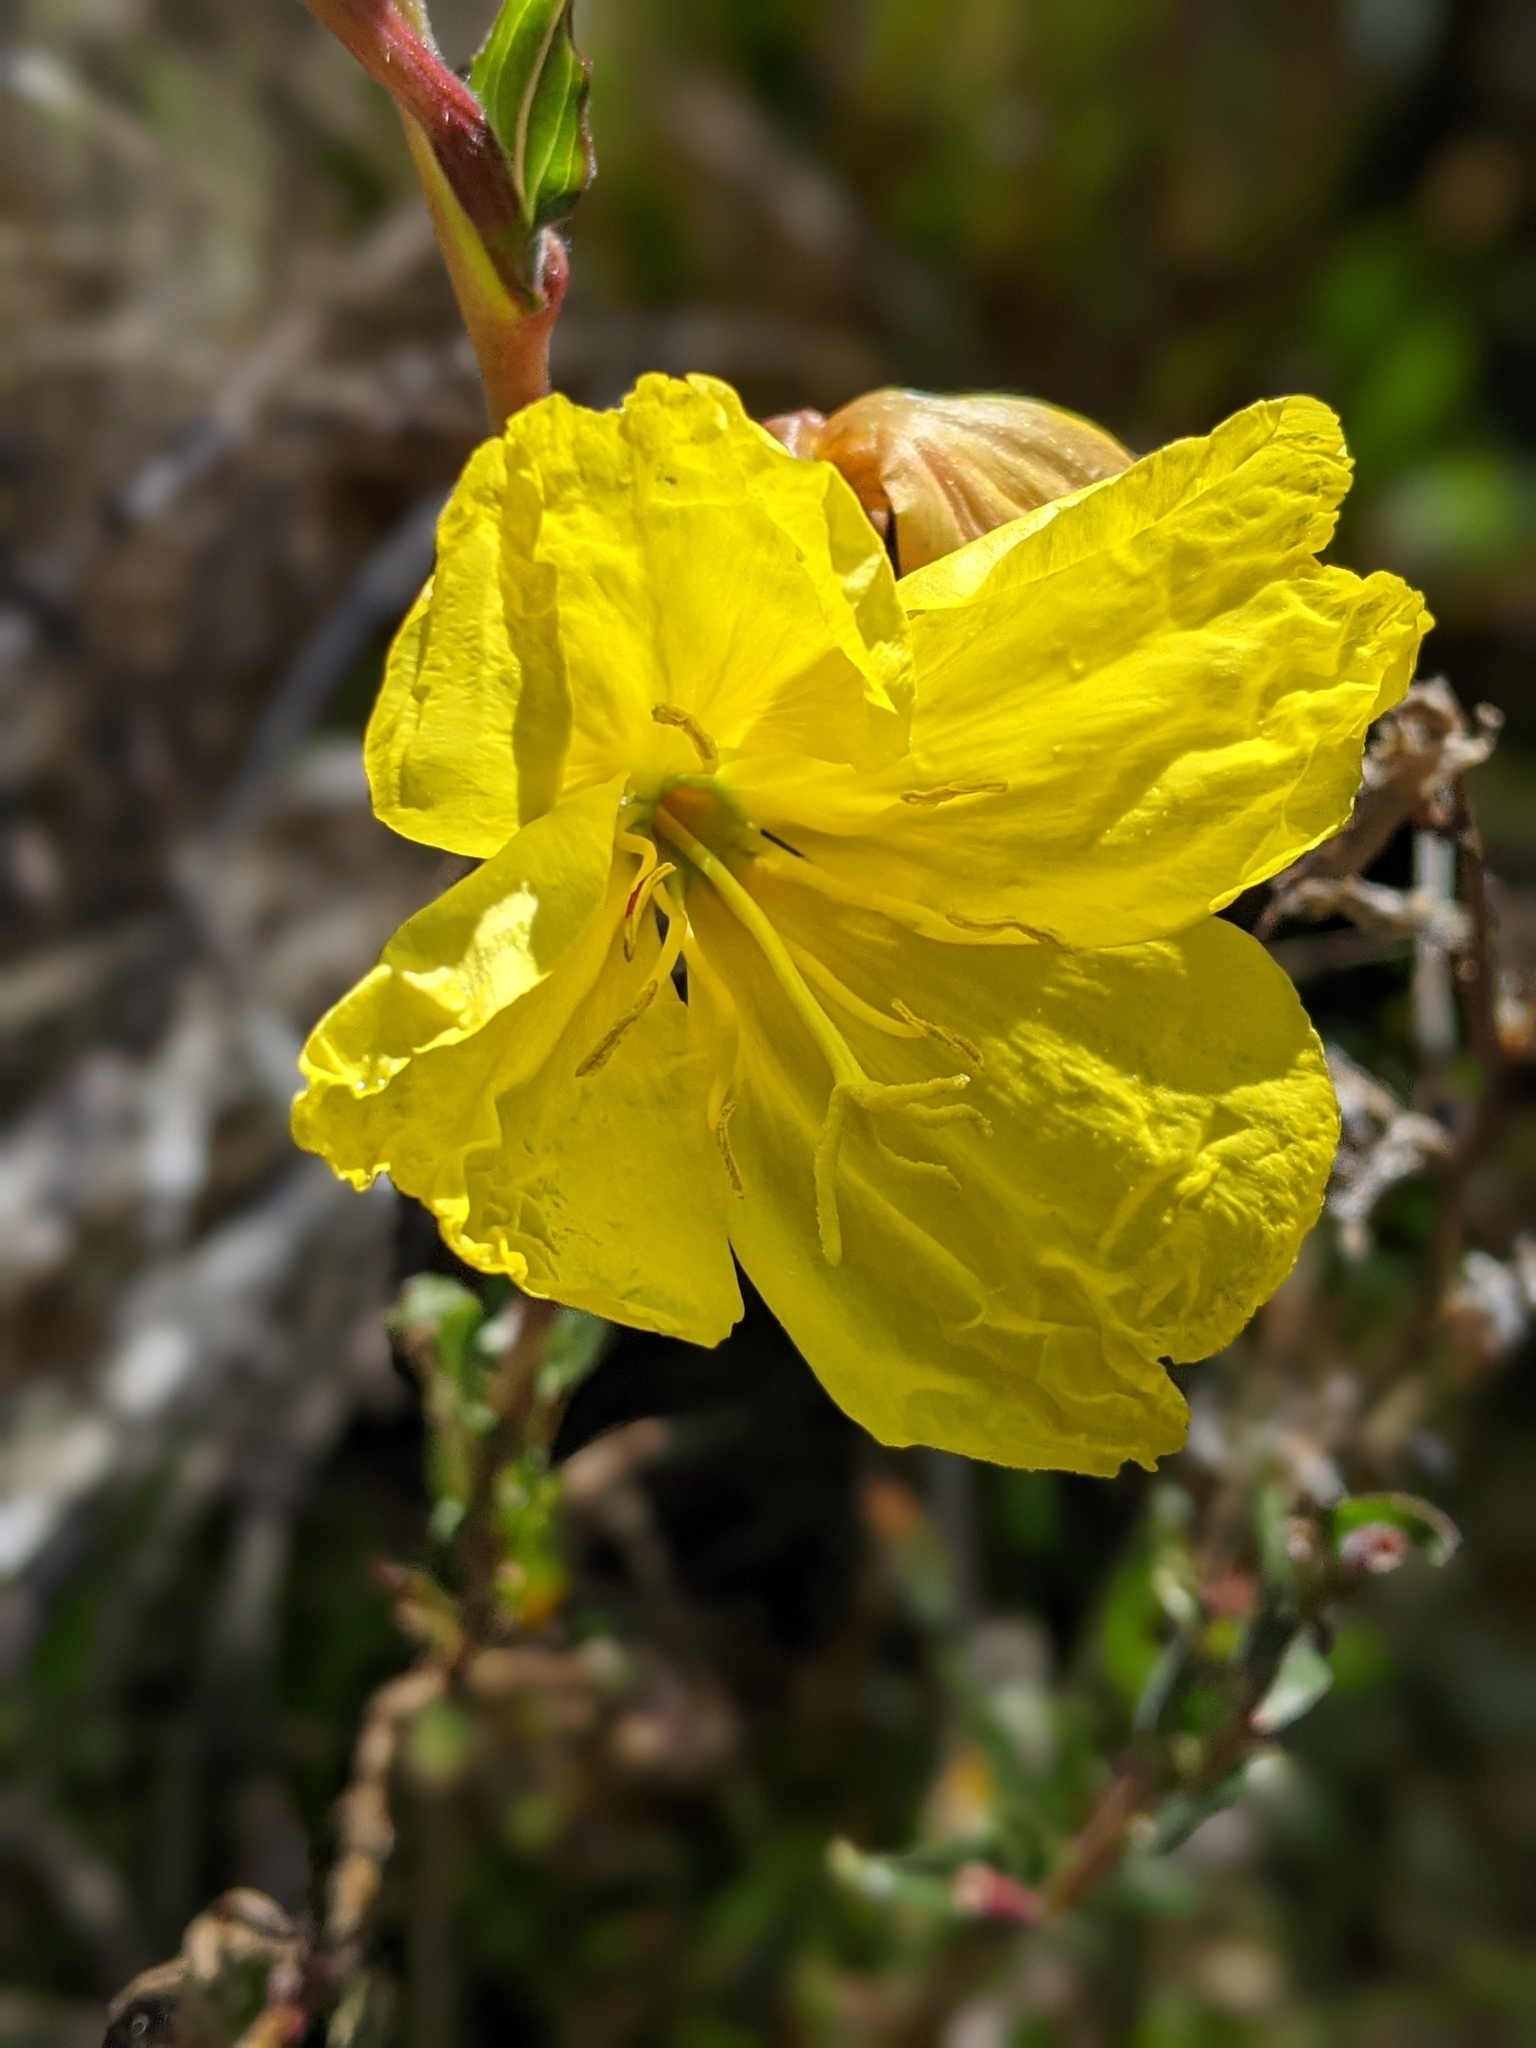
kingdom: Plantae
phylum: Tracheophyta
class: Magnoliopsida
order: Myrtales
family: Onagraceae
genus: Oenothera
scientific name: Oenothera stricta
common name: Fragrant evening-primrose
